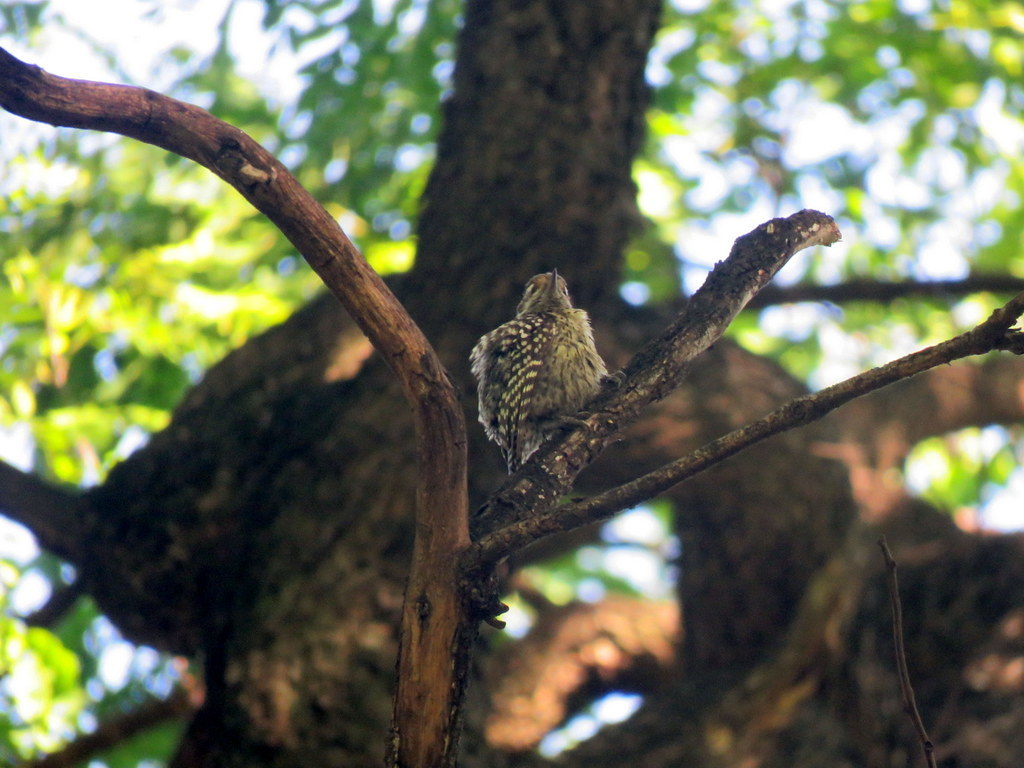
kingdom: Animalia
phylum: Chordata
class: Aves
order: Piciformes
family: Picidae
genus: Veniliornis
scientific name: Veniliornis mixtus
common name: Checkered woodpecker
